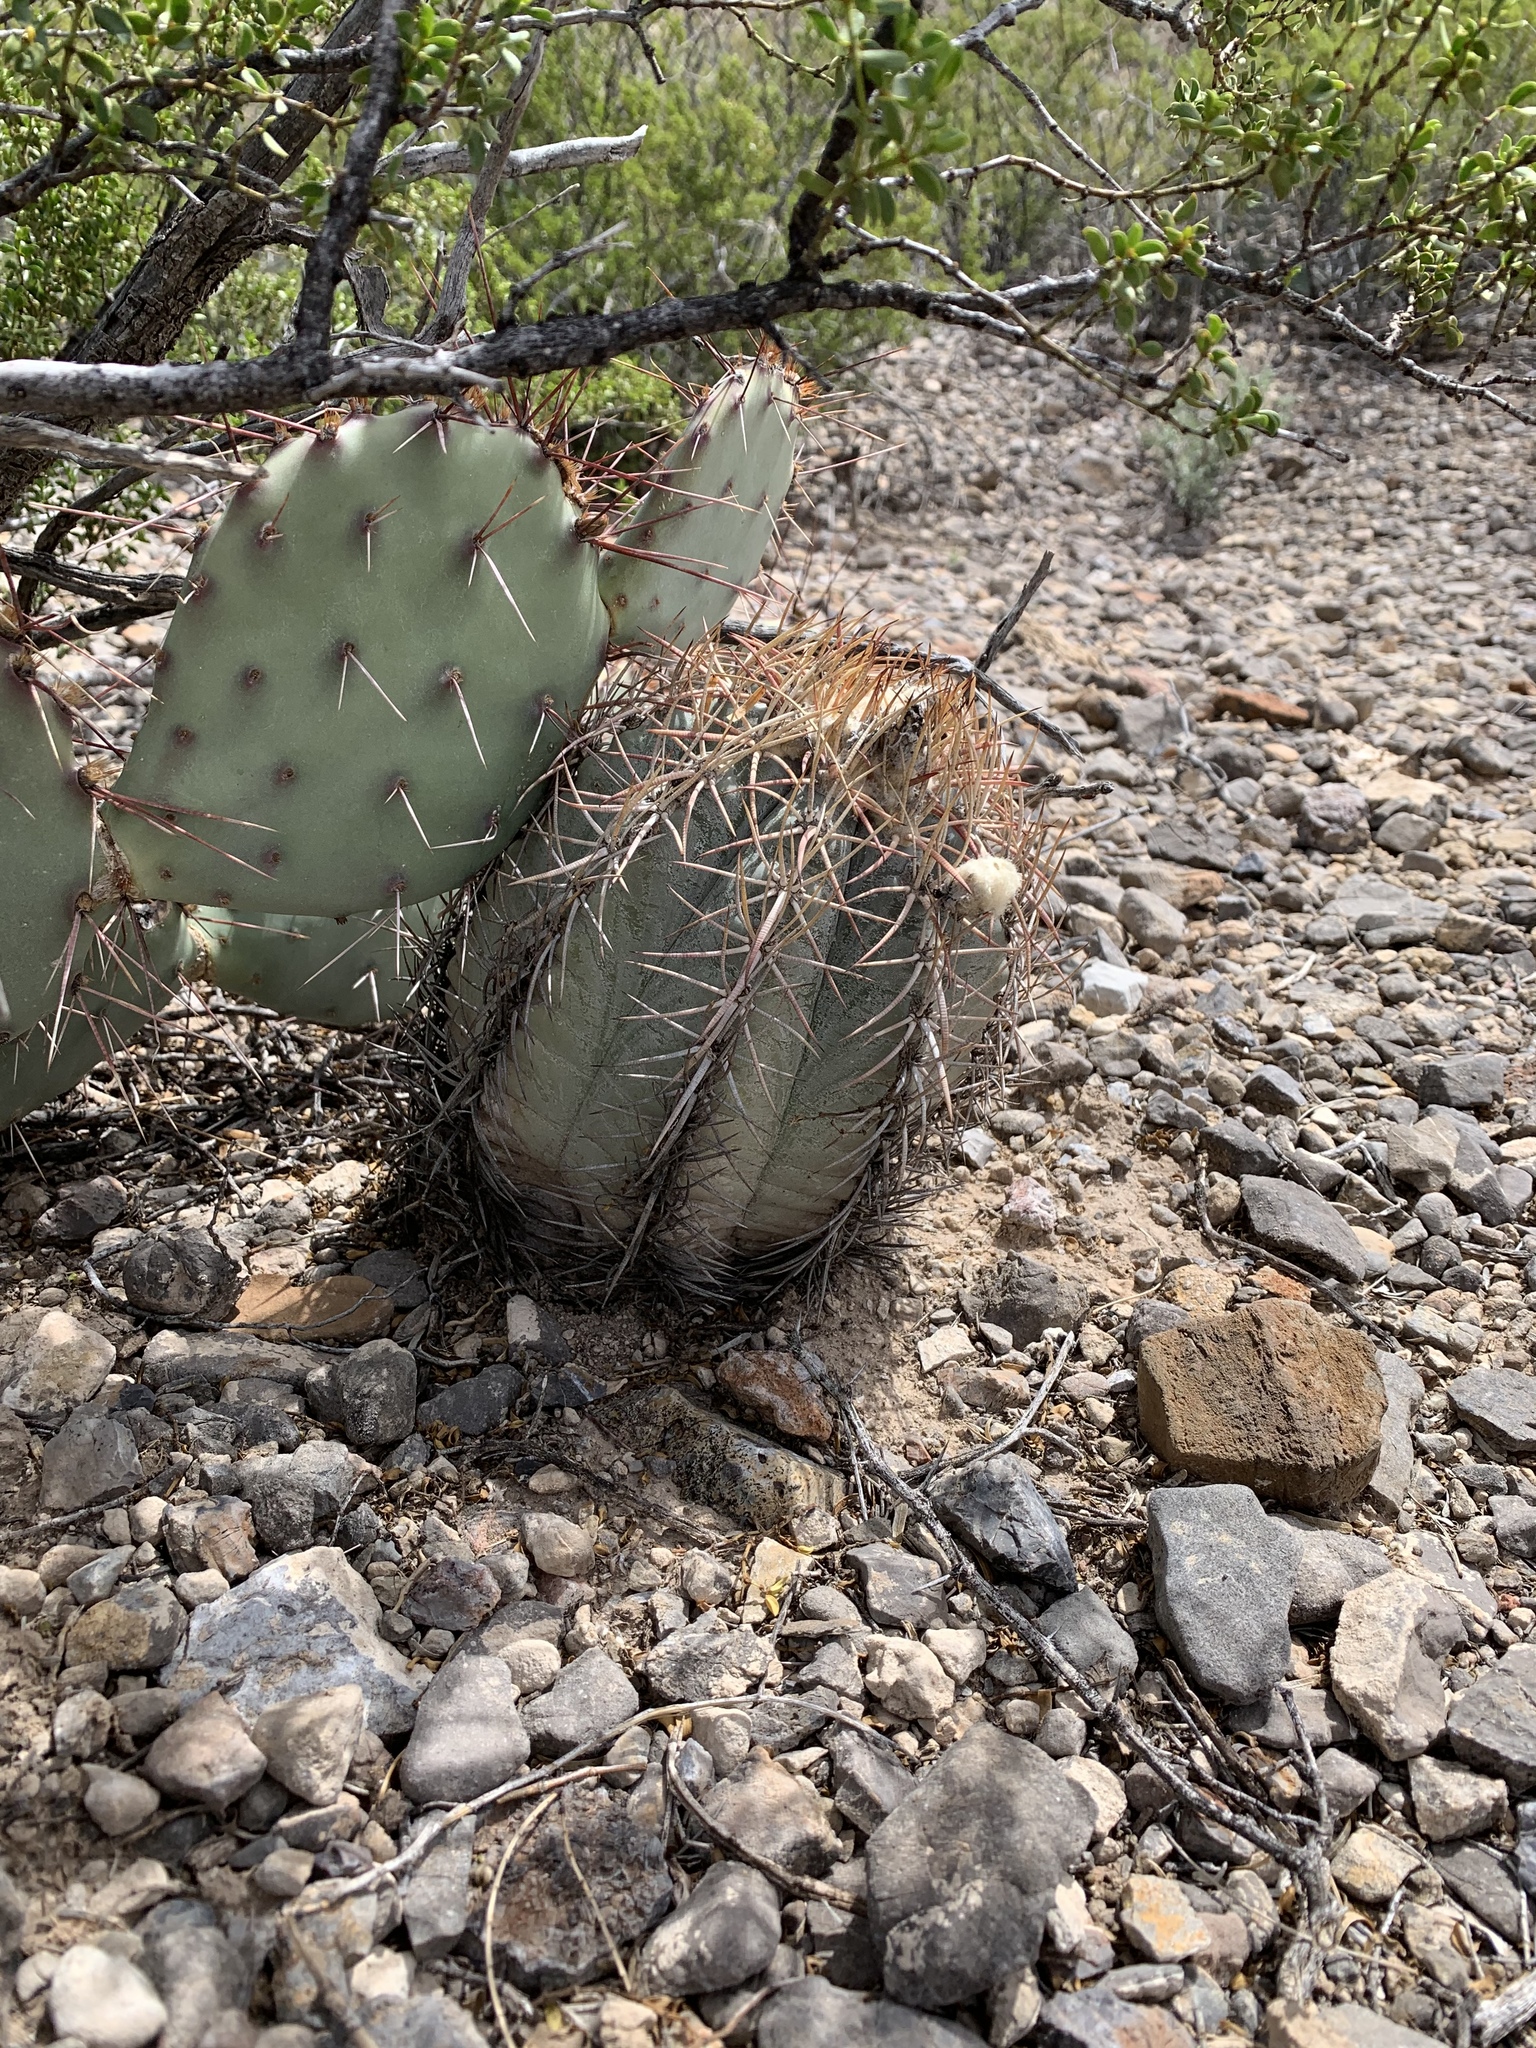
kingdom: Plantae
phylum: Tracheophyta
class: Magnoliopsida
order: Caryophyllales
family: Cactaceae
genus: Echinocactus
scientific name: Echinocactus horizonthalonius
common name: Devilshead
